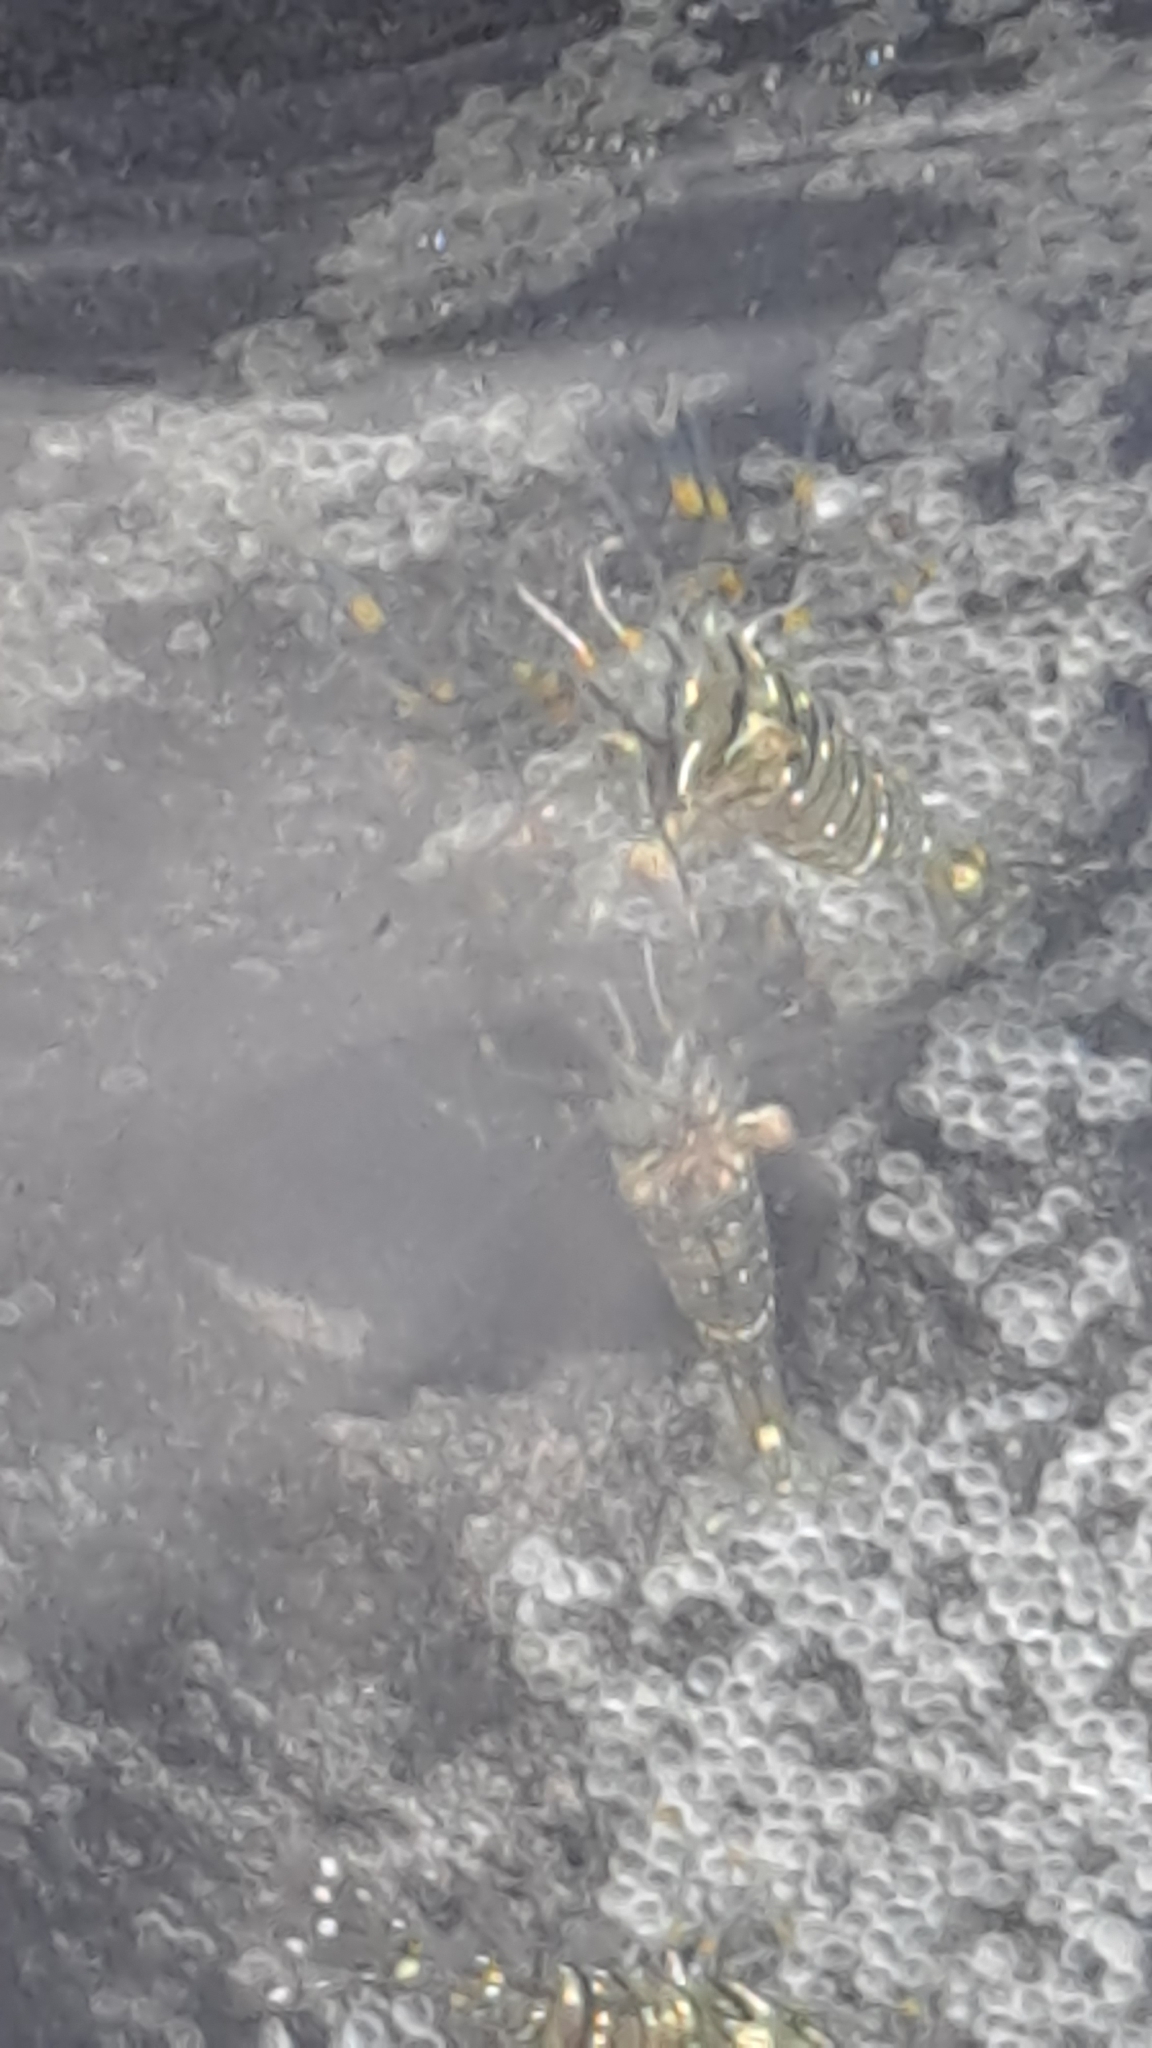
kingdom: Animalia
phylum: Arthropoda
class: Malacostraca
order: Decapoda
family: Palaemonidae
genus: Palaemon
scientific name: Palaemon elegans
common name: Grass prawm
